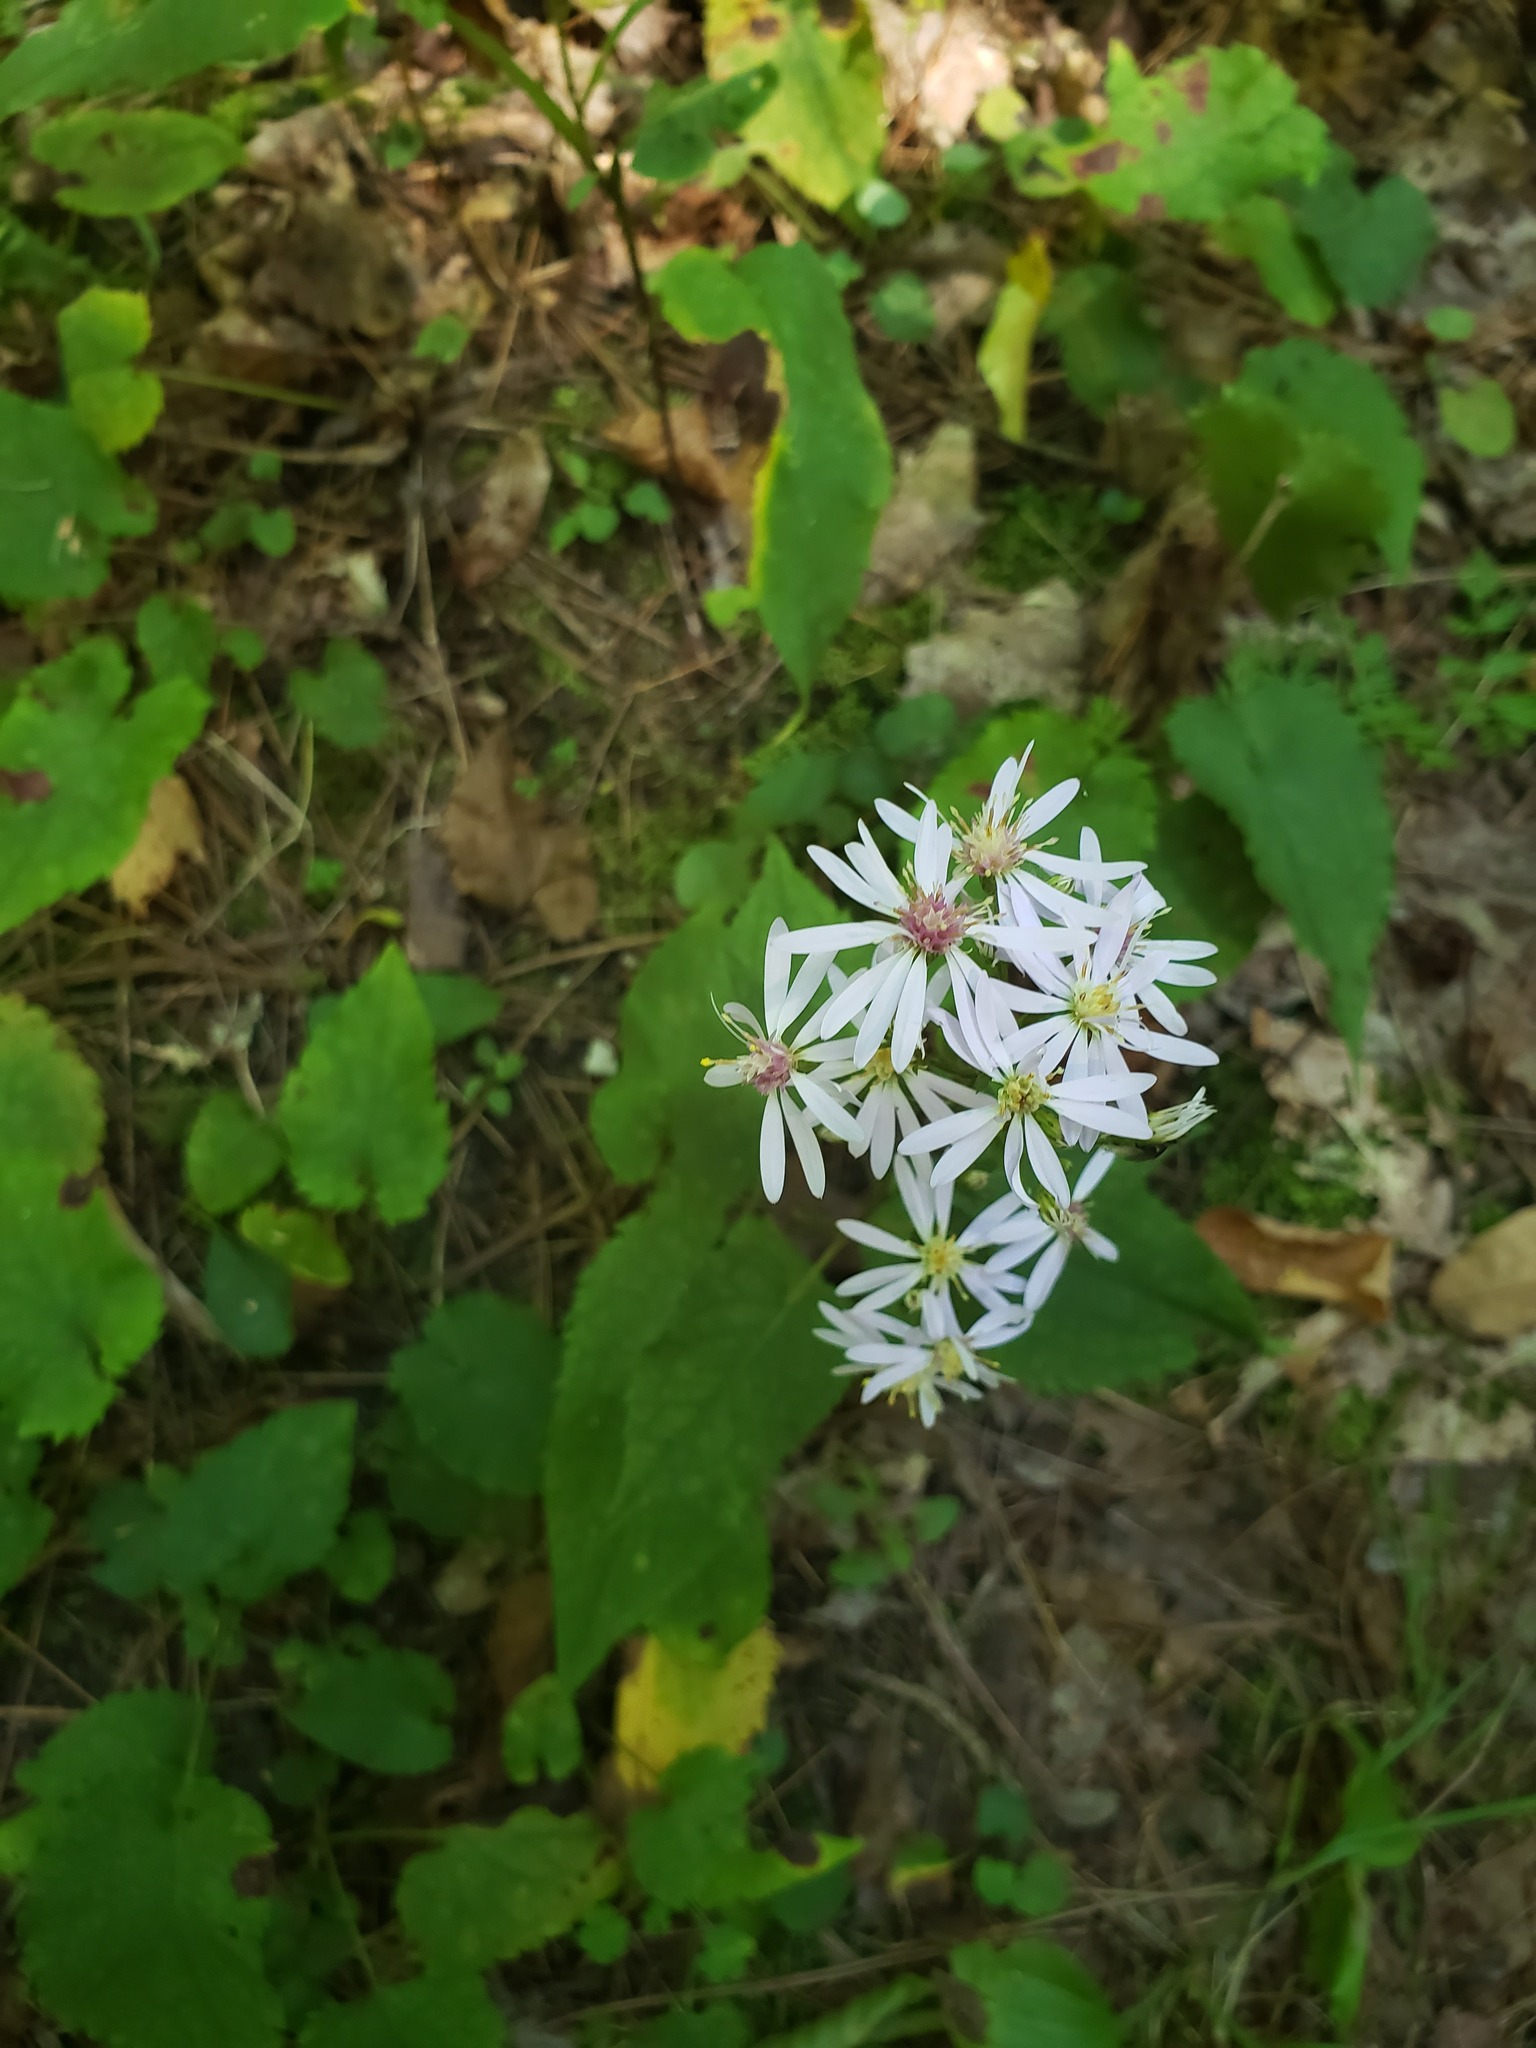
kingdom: Plantae
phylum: Tracheophyta
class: Magnoliopsida
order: Asterales
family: Asteraceae
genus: Symphyotrichum
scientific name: Symphyotrichum cordifolium
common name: Beeweed
